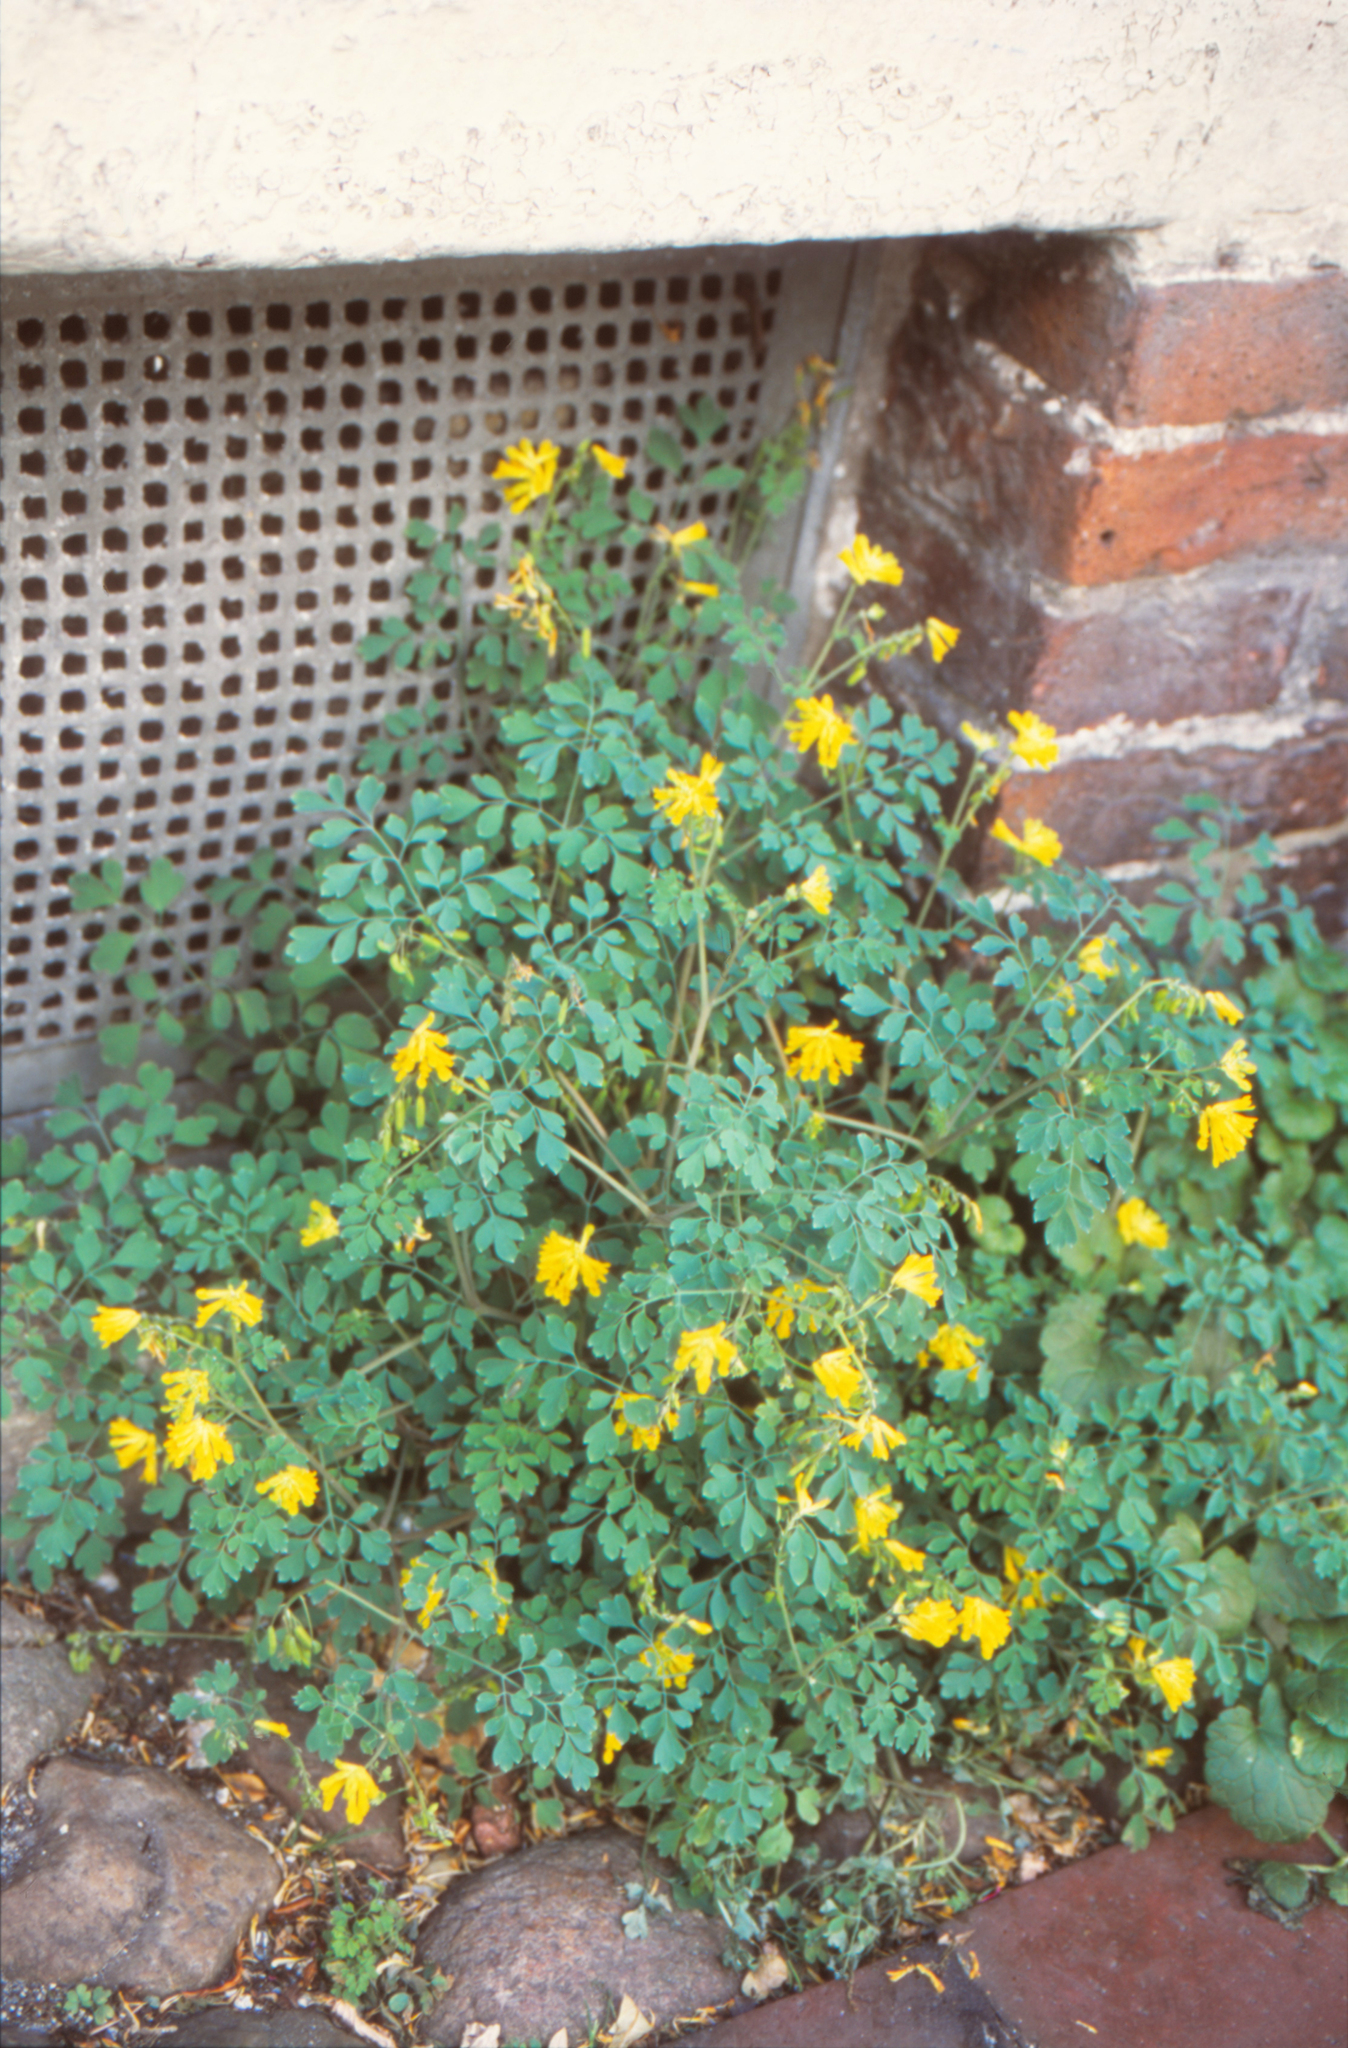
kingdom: Plantae
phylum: Tracheophyta
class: Magnoliopsida
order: Ranunculales
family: Papaveraceae
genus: Pseudofumaria
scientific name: Pseudofumaria lutea
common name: Yellow corydalis
